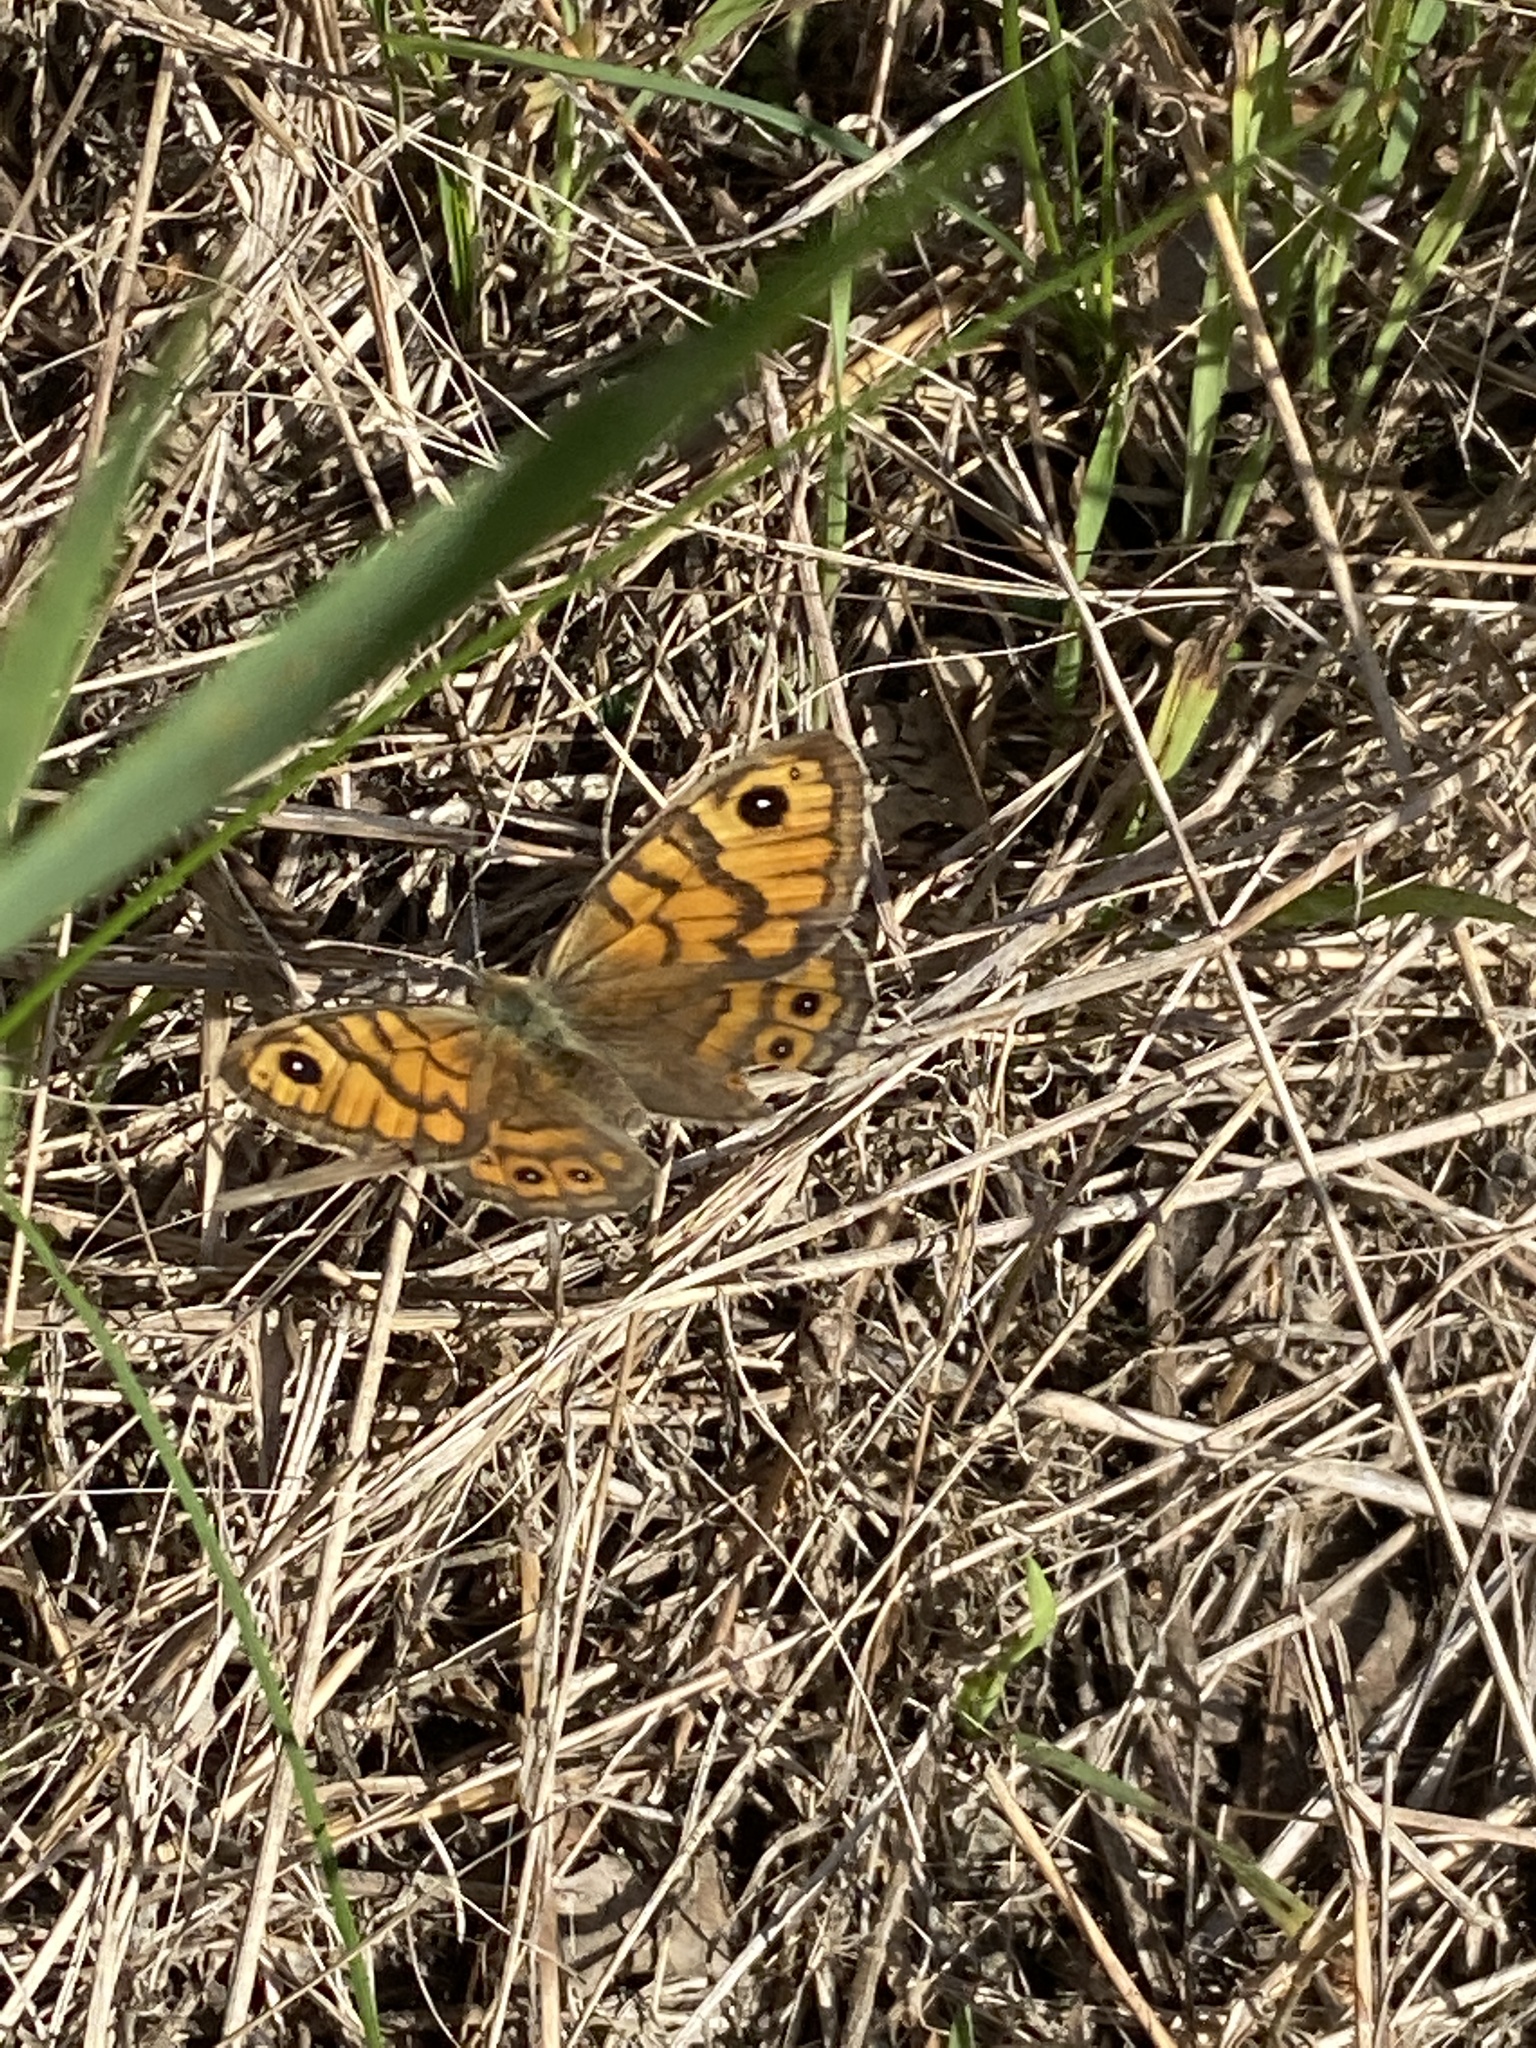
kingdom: Animalia
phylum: Arthropoda
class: Insecta
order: Lepidoptera
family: Nymphalidae
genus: Pararge
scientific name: Pararge Lasiommata megera
